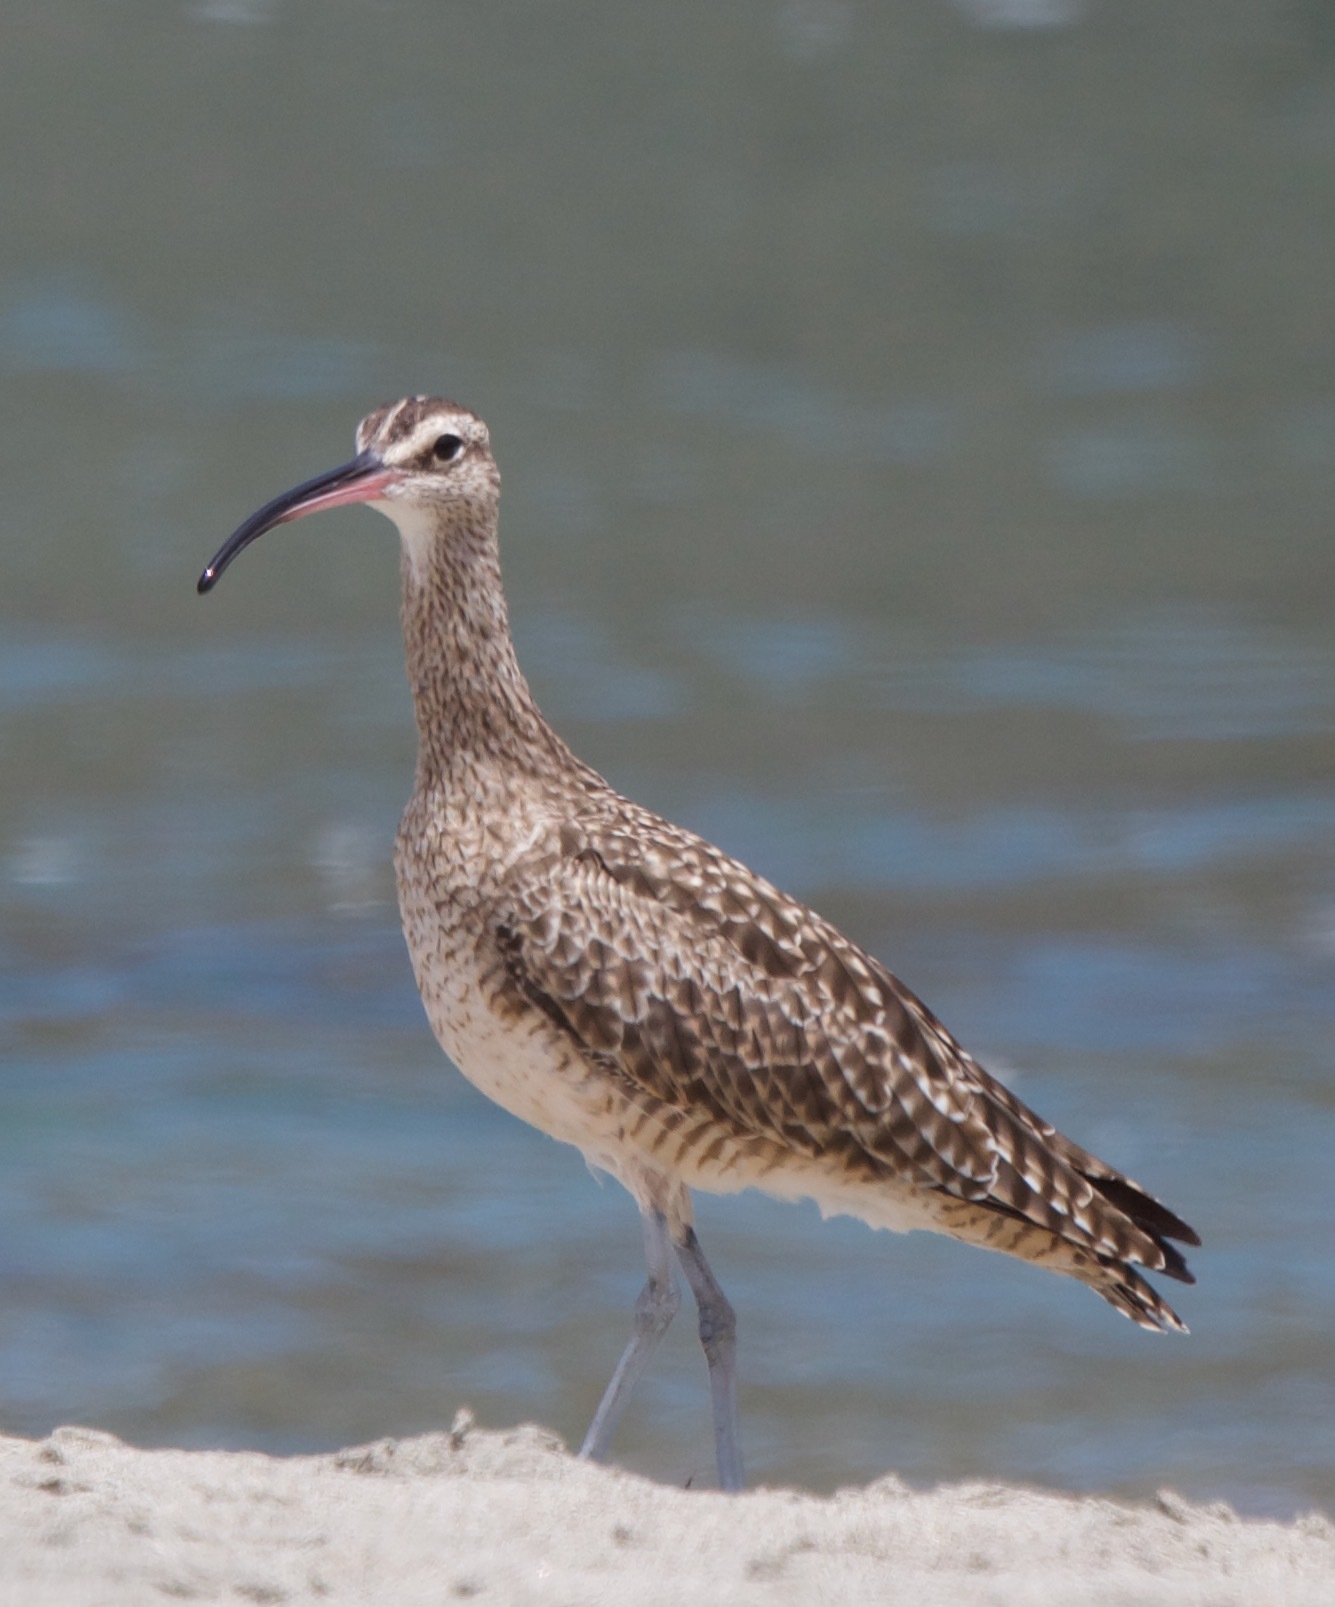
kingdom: Animalia
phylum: Chordata
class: Aves
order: Charadriiformes
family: Scolopacidae
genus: Numenius
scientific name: Numenius phaeopus
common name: Whimbrel
